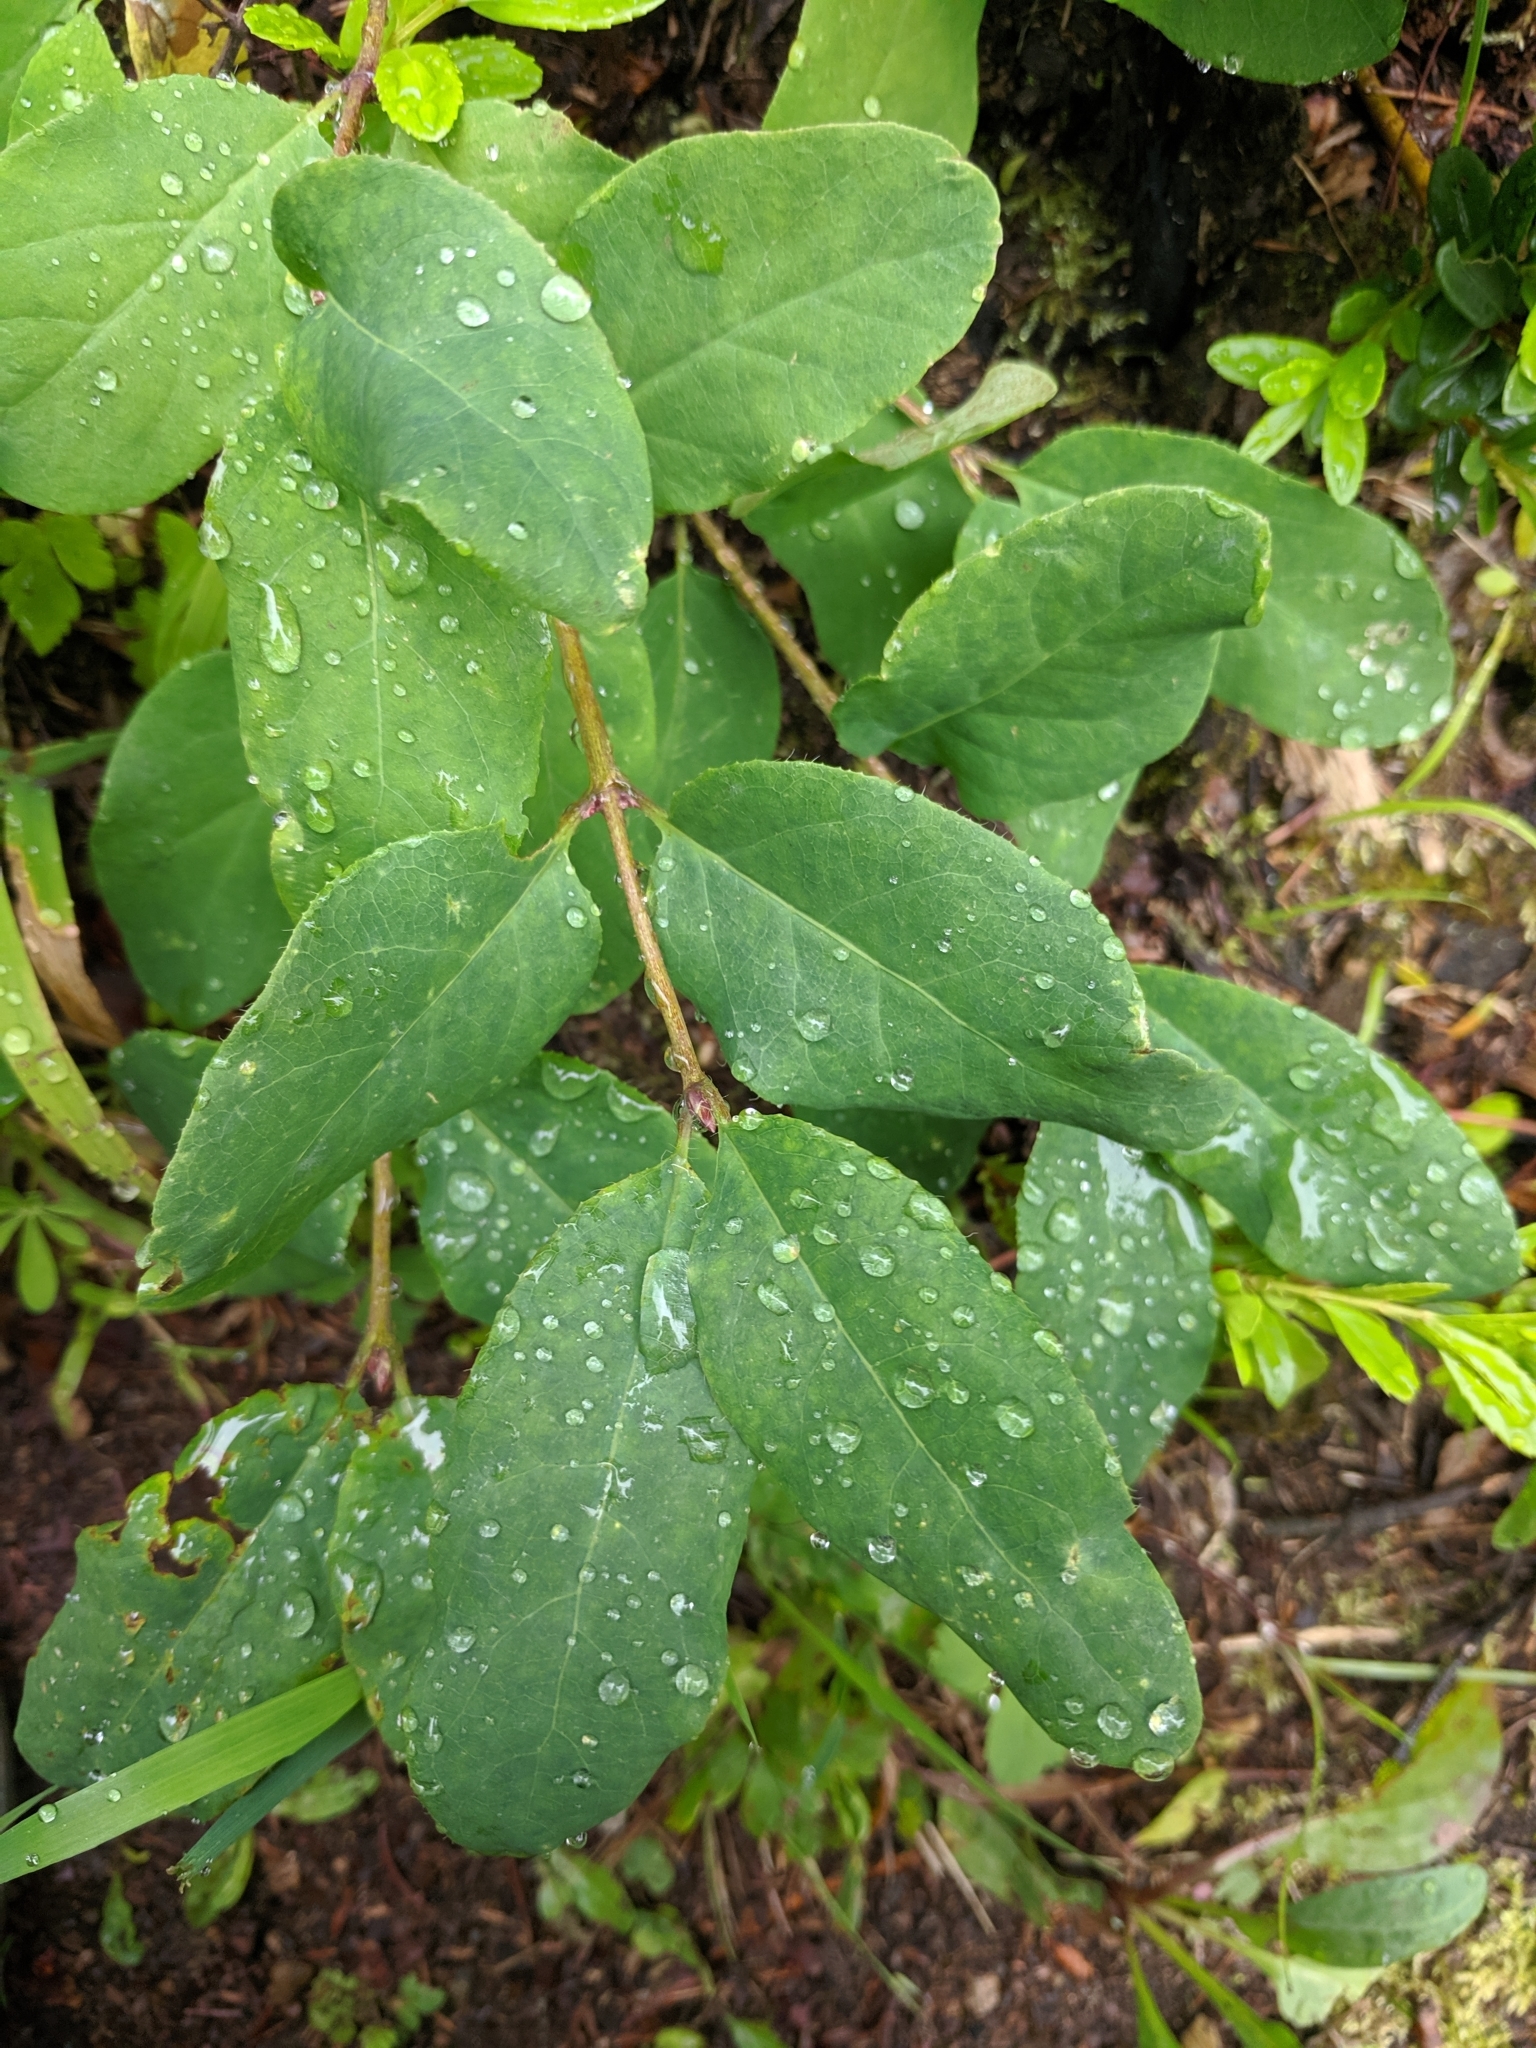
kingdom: Plantae
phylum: Tracheophyta
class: Magnoliopsida
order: Dipsacales
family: Caprifoliaceae
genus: Lonicera
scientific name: Lonicera utahensis
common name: Utah honeysuckle
